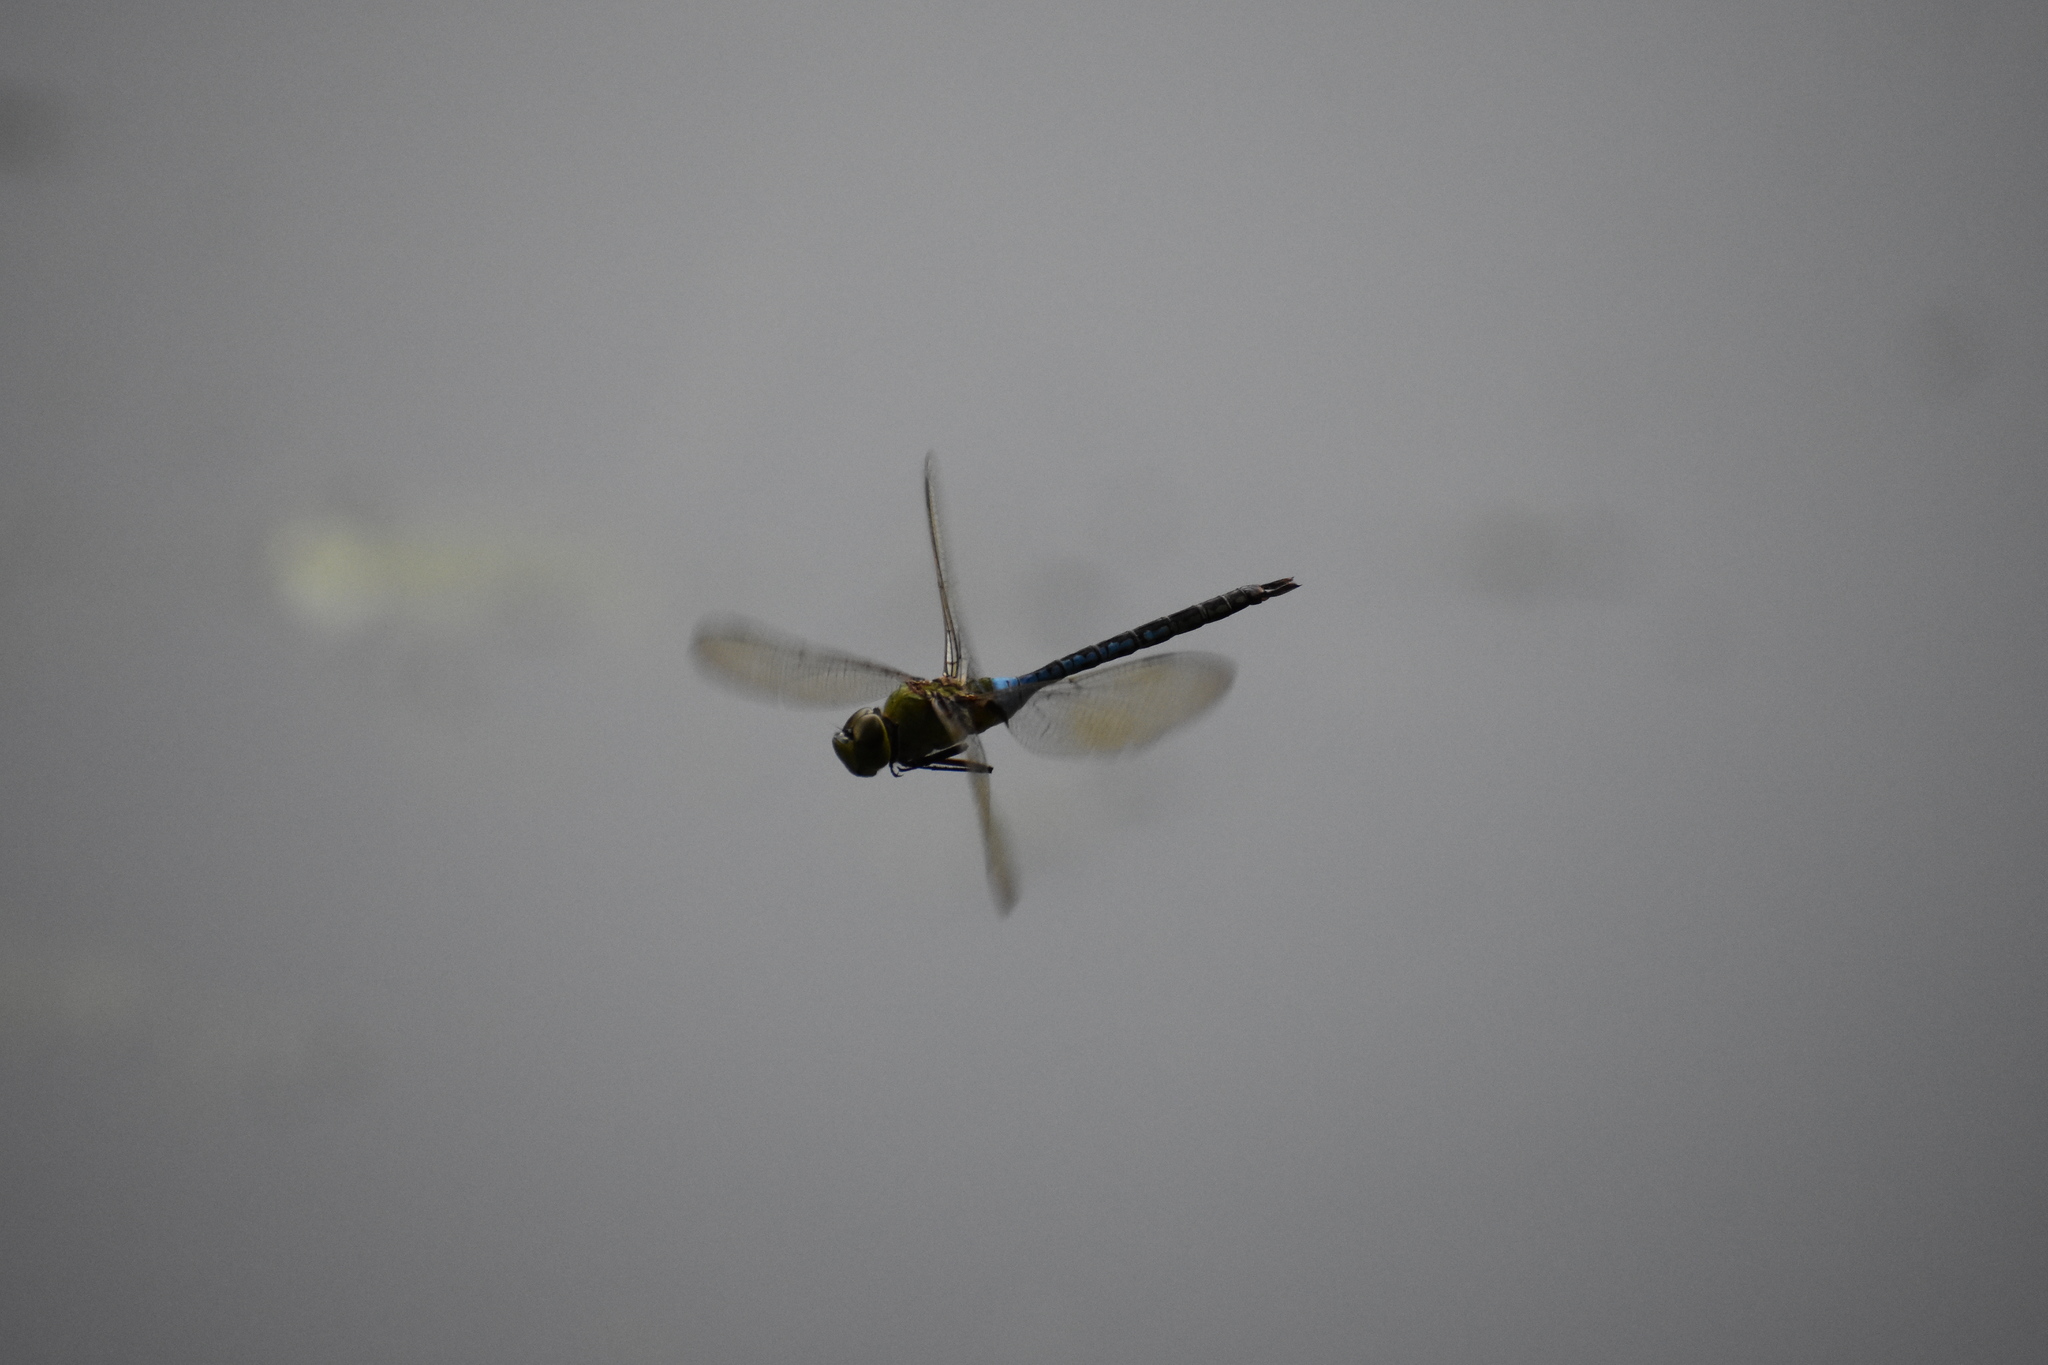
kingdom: Animalia
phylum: Arthropoda
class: Insecta
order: Odonata
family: Aeshnidae
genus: Anax
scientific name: Anax junius
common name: Common green darner
